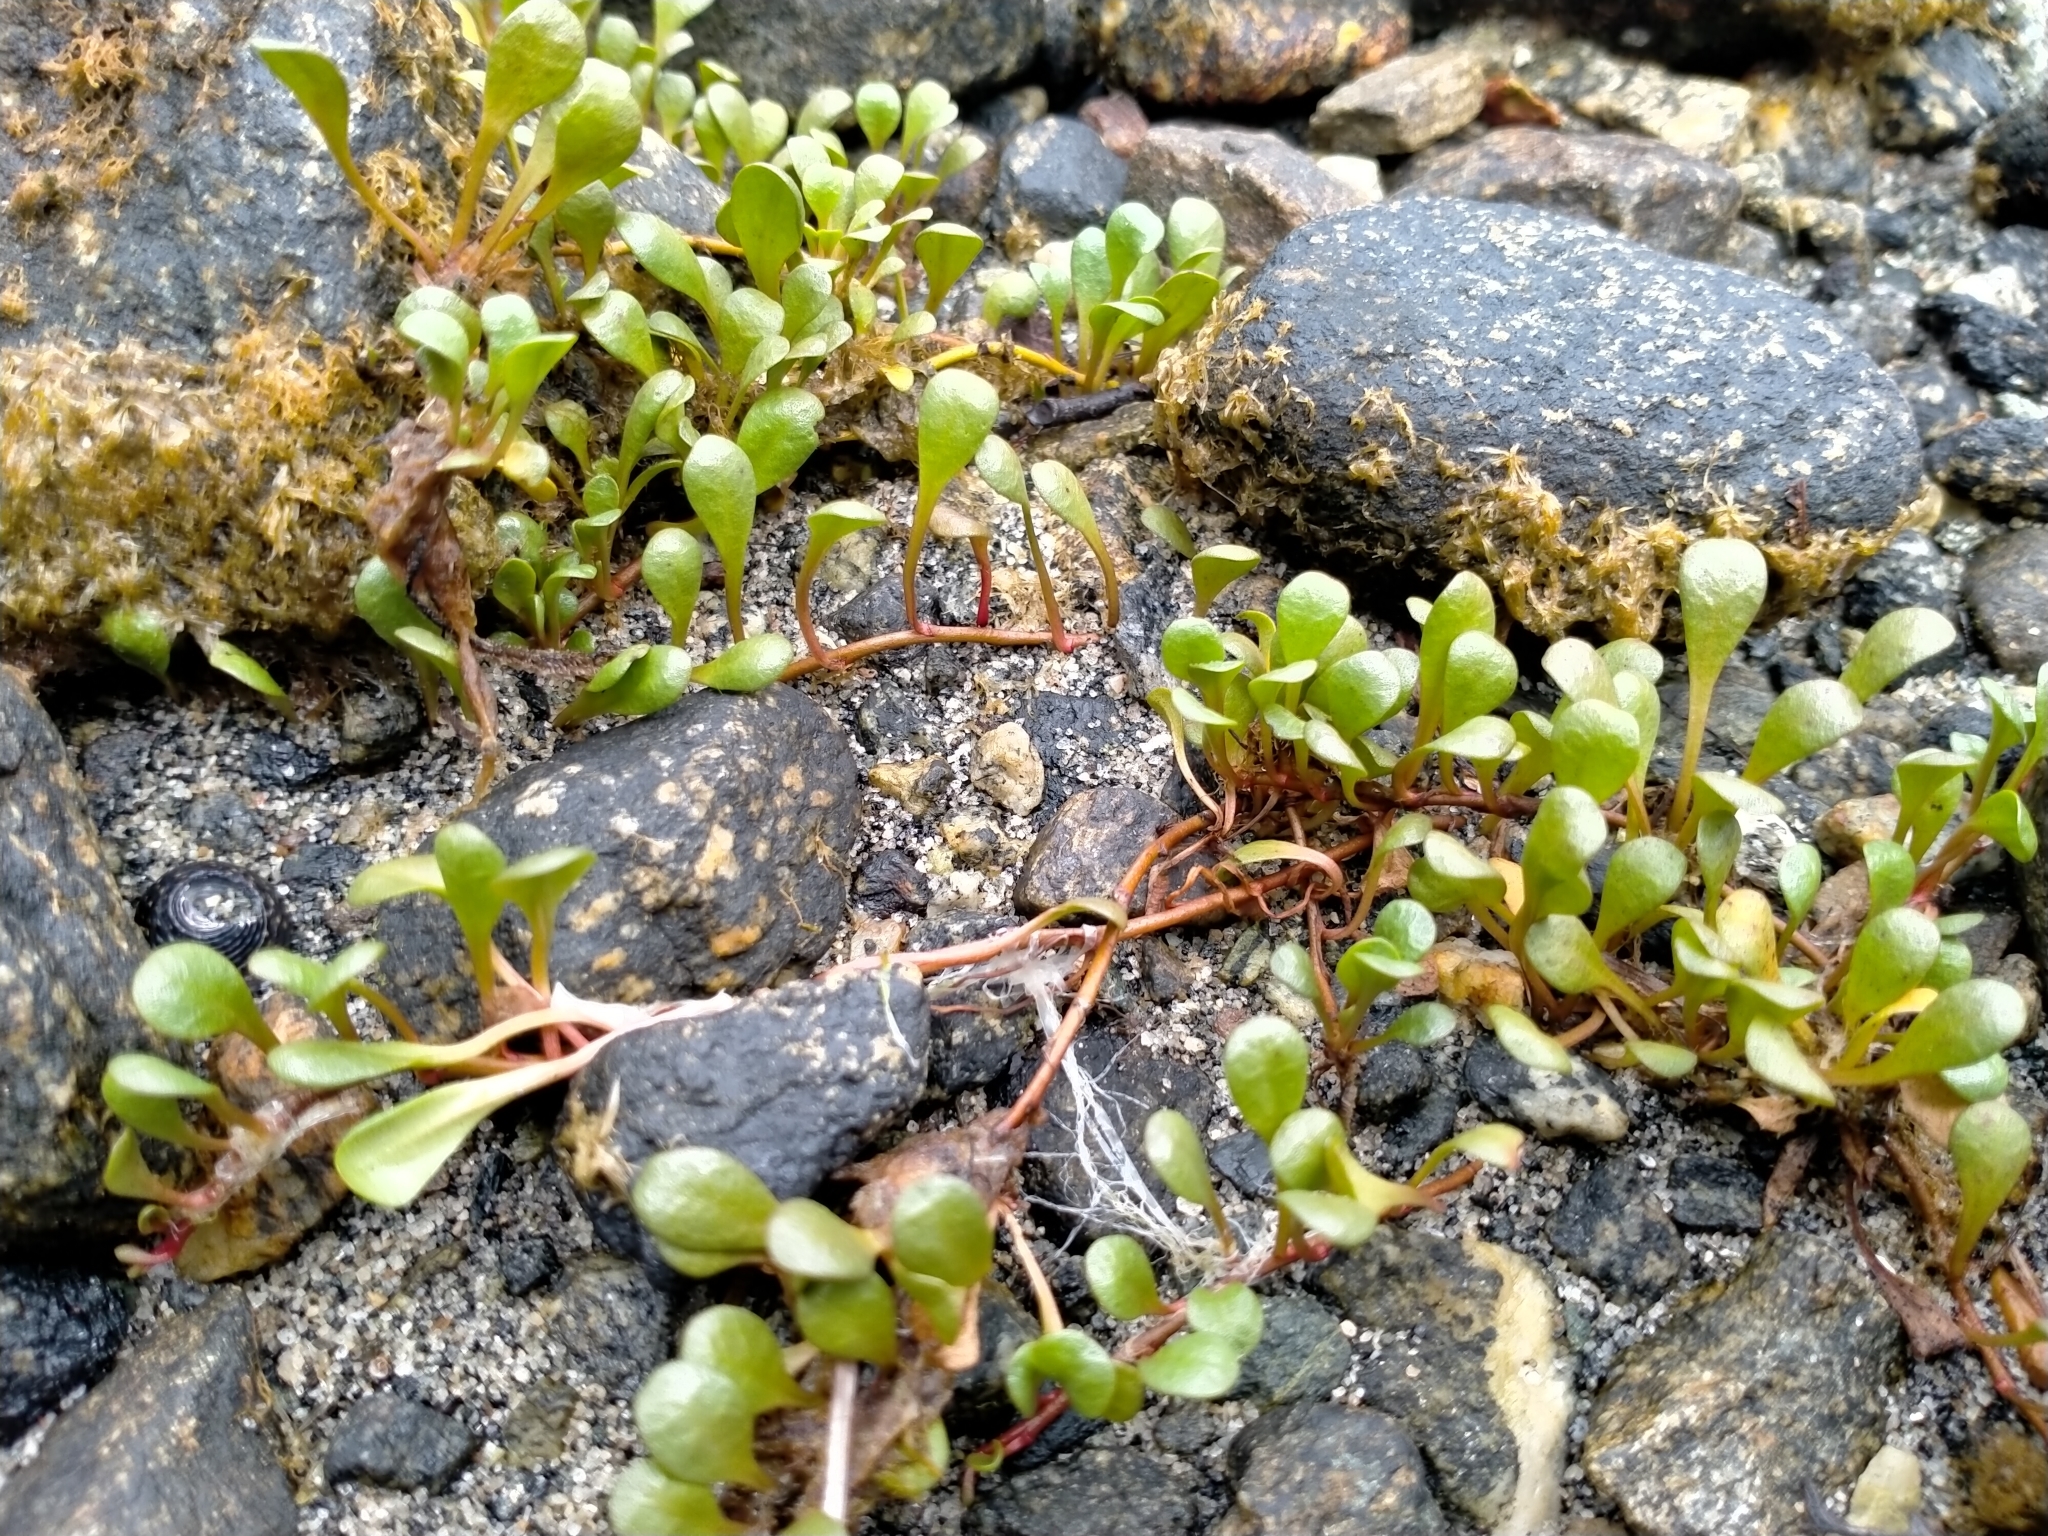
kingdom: Plantae
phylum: Tracheophyta
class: Magnoliopsida
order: Ericales
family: Primulaceae
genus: Samolus
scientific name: Samolus repens
